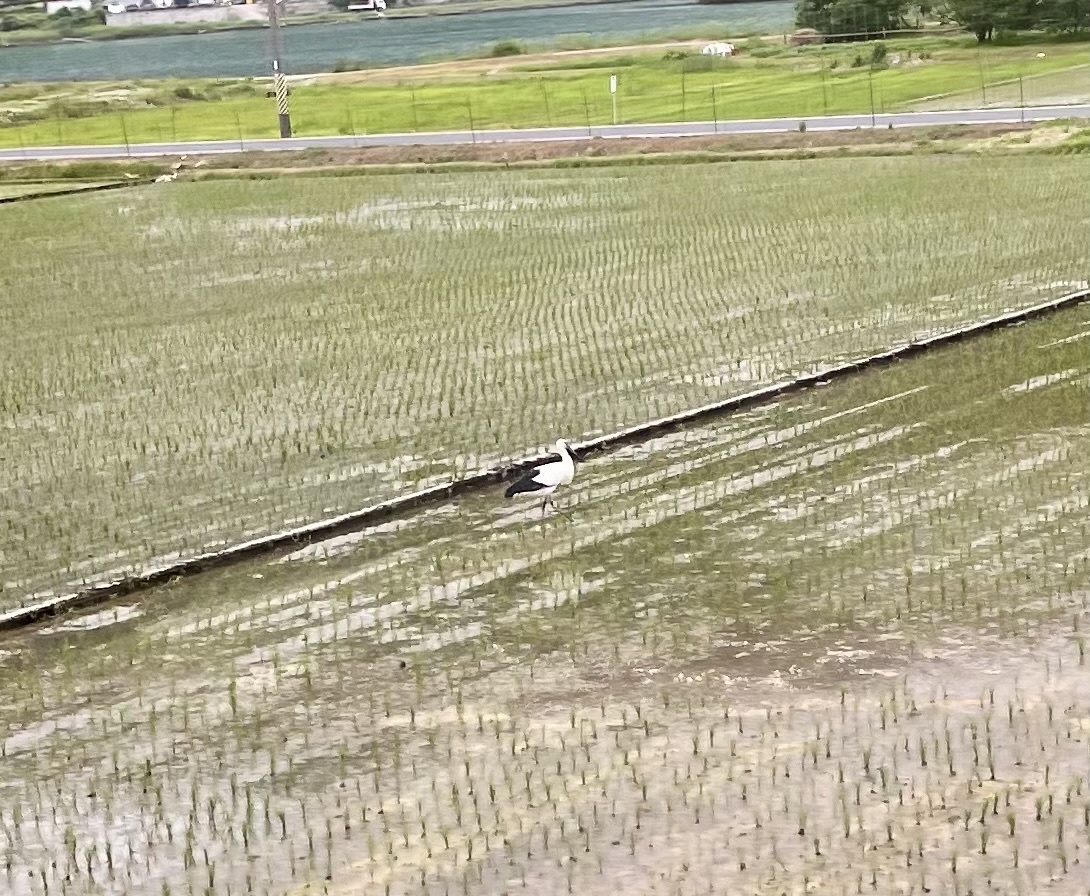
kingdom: Animalia
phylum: Chordata
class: Aves
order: Ciconiiformes
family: Ciconiidae
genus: Ciconia
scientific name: Ciconia boyciana
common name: Oriental stork
